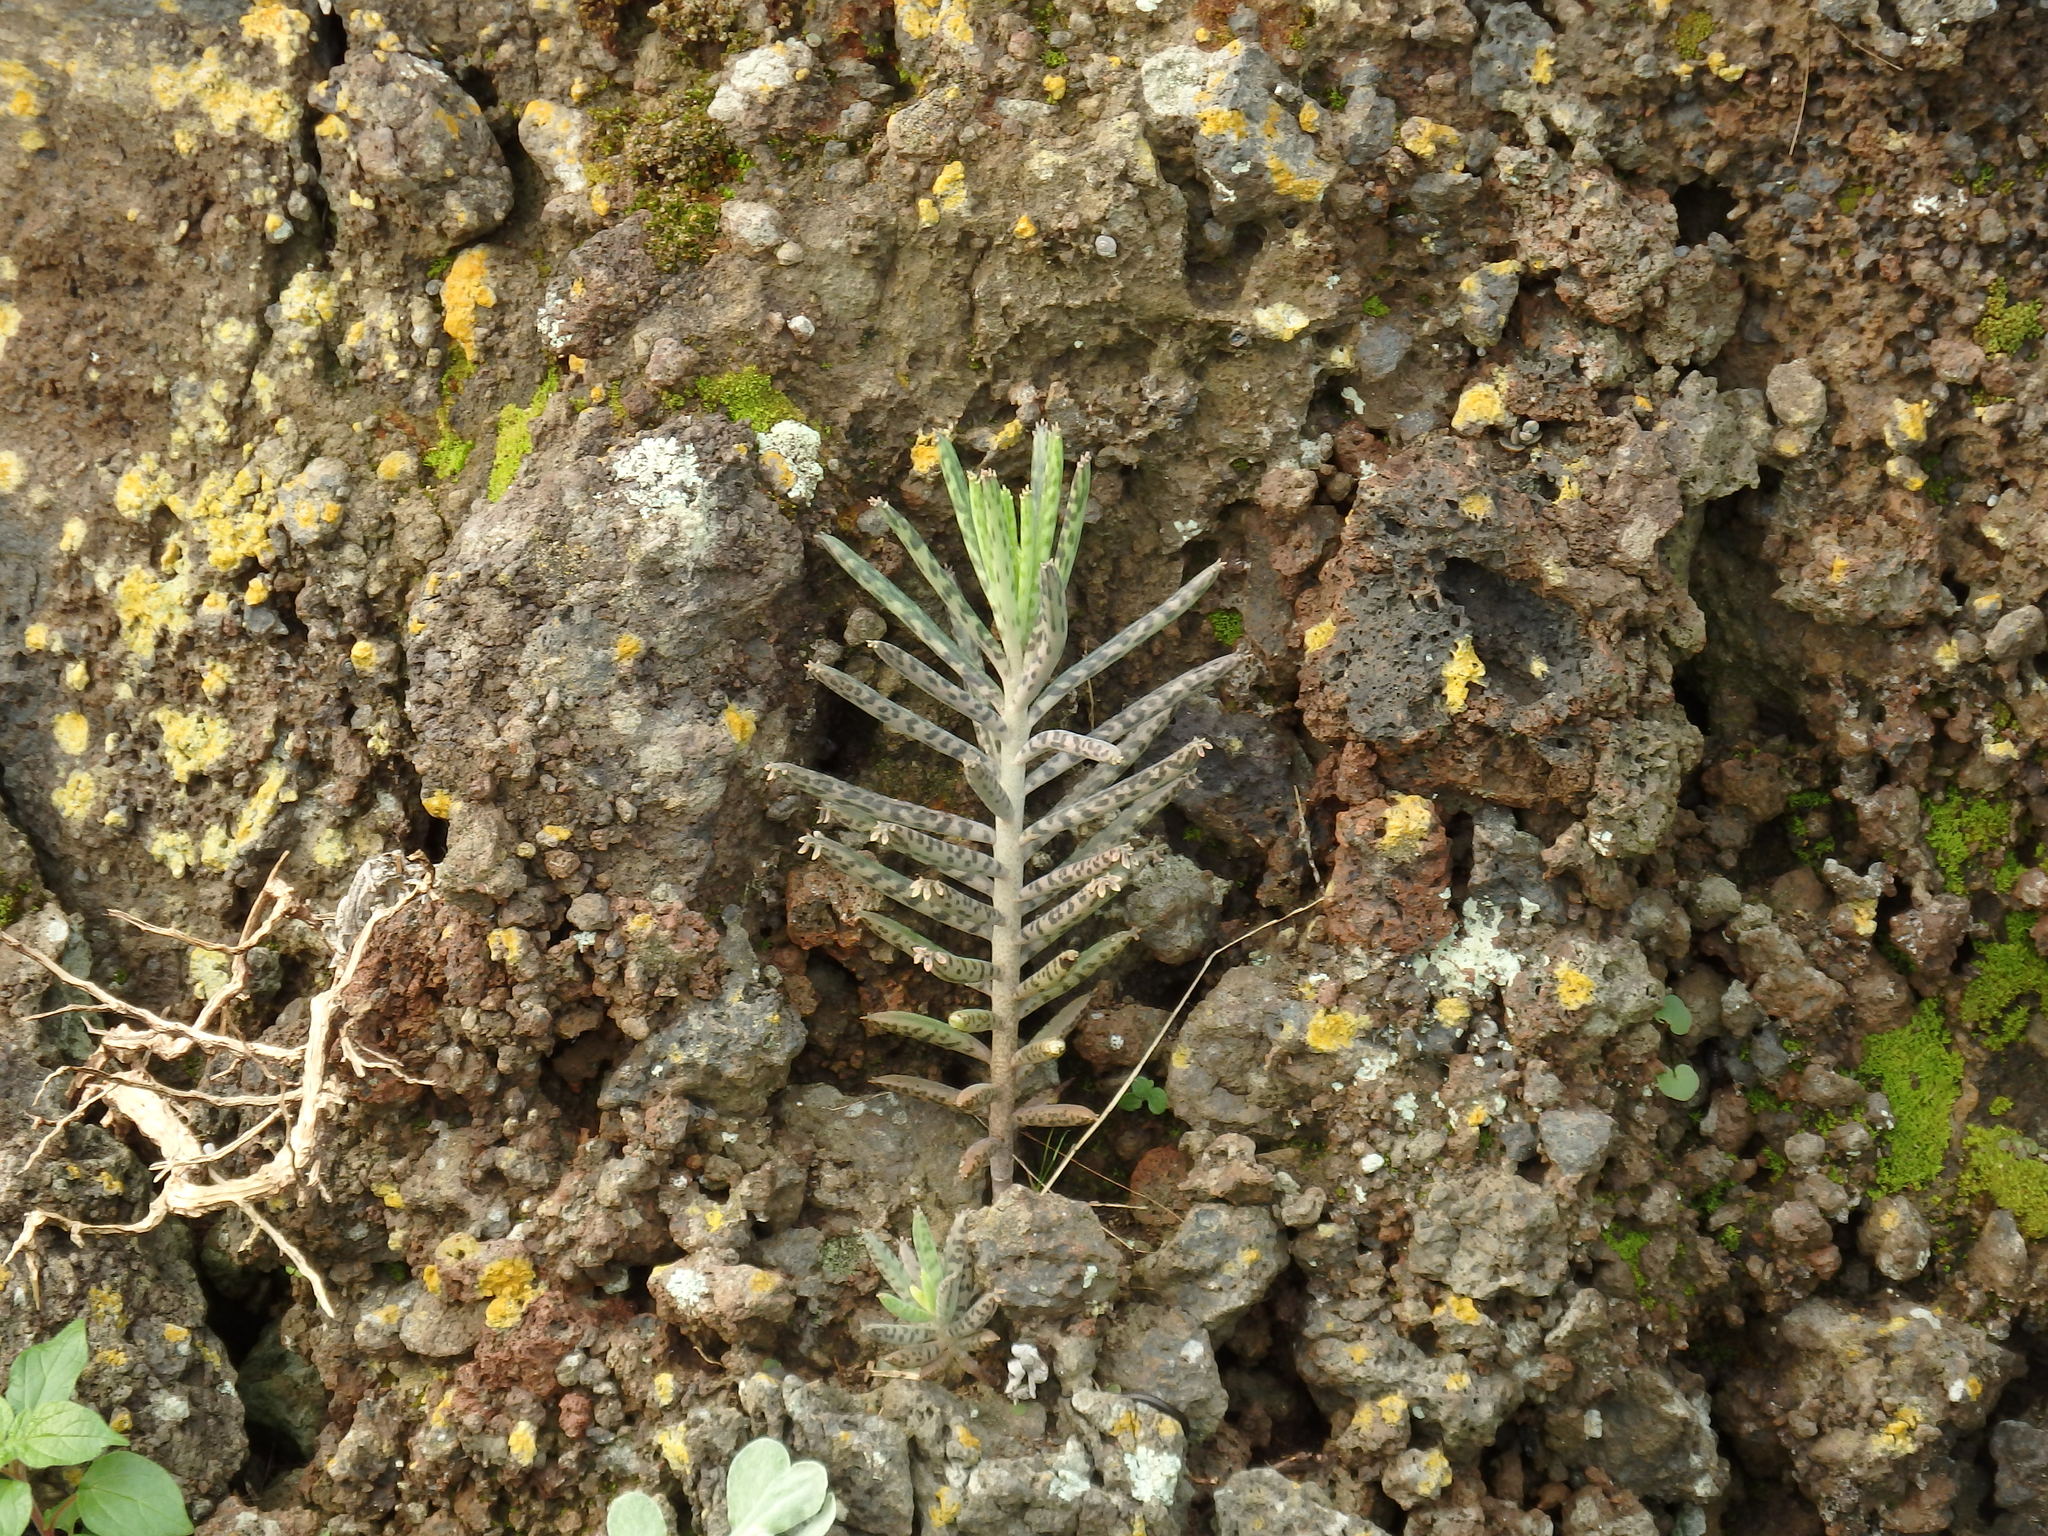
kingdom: Plantae
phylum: Tracheophyta
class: Magnoliopsida
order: Saxifragales
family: Crassulaceae
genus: Kalanchoe
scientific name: Kalanchoe delagoensis
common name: Chandelier plant
